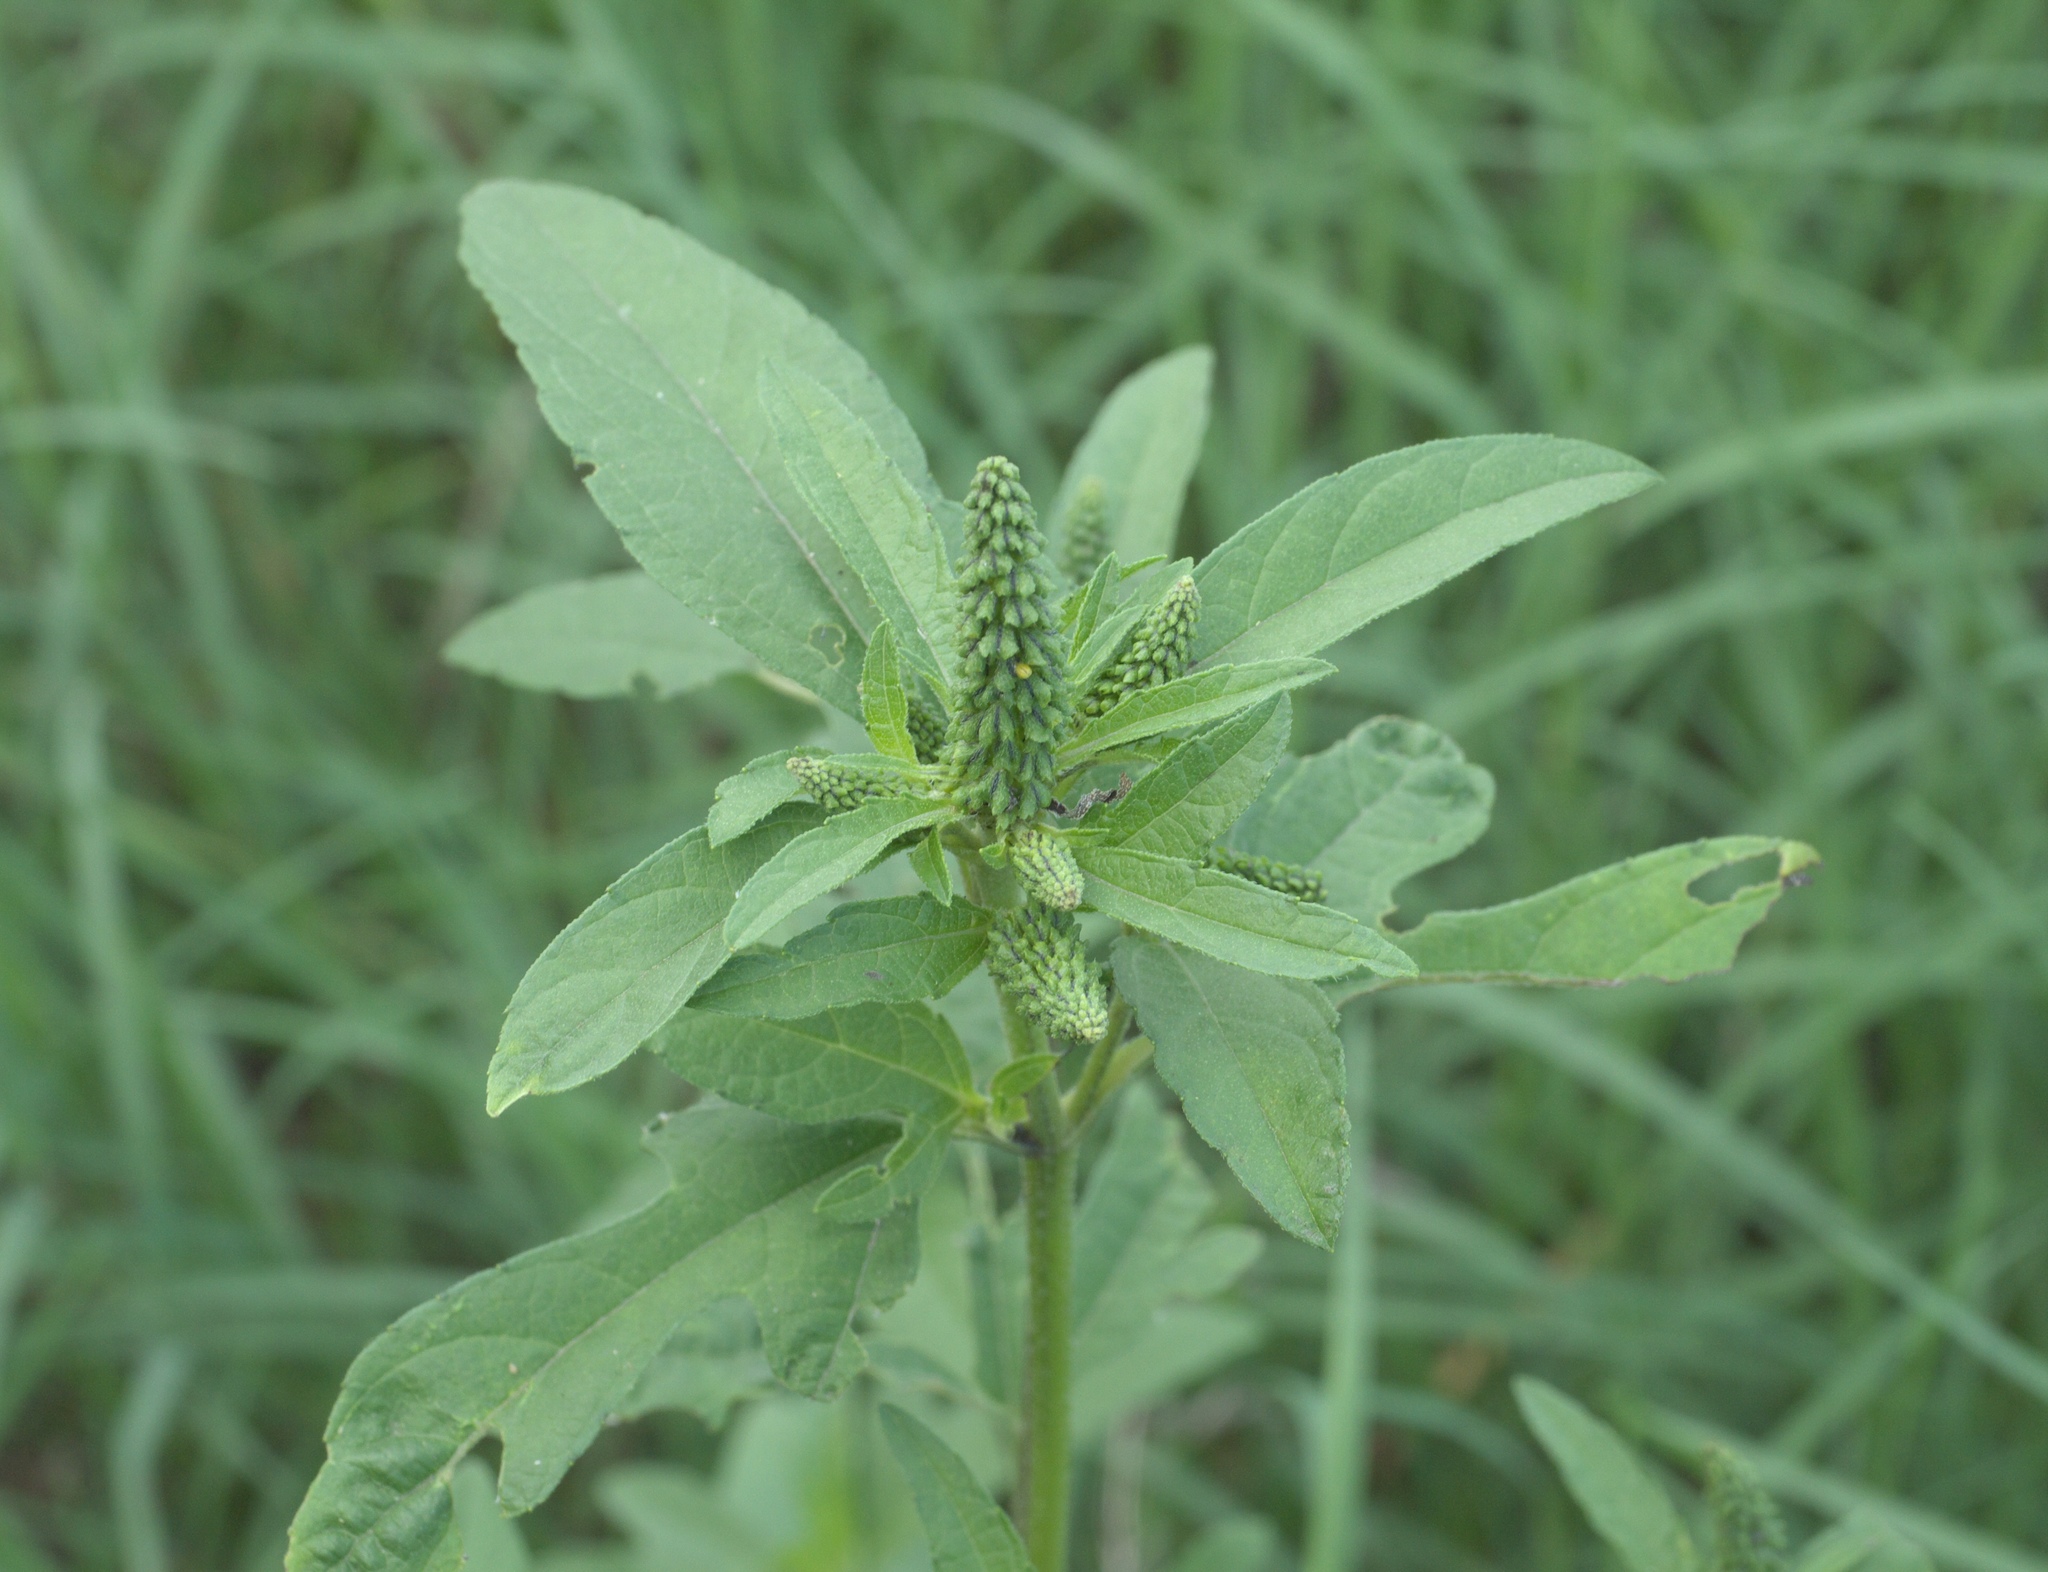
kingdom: Plantae
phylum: Tracheophyta
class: Magnoliopsida
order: Asterales
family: Asteraceae
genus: Ambrosia
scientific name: Ambrosia trifida
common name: Giant ragweed
